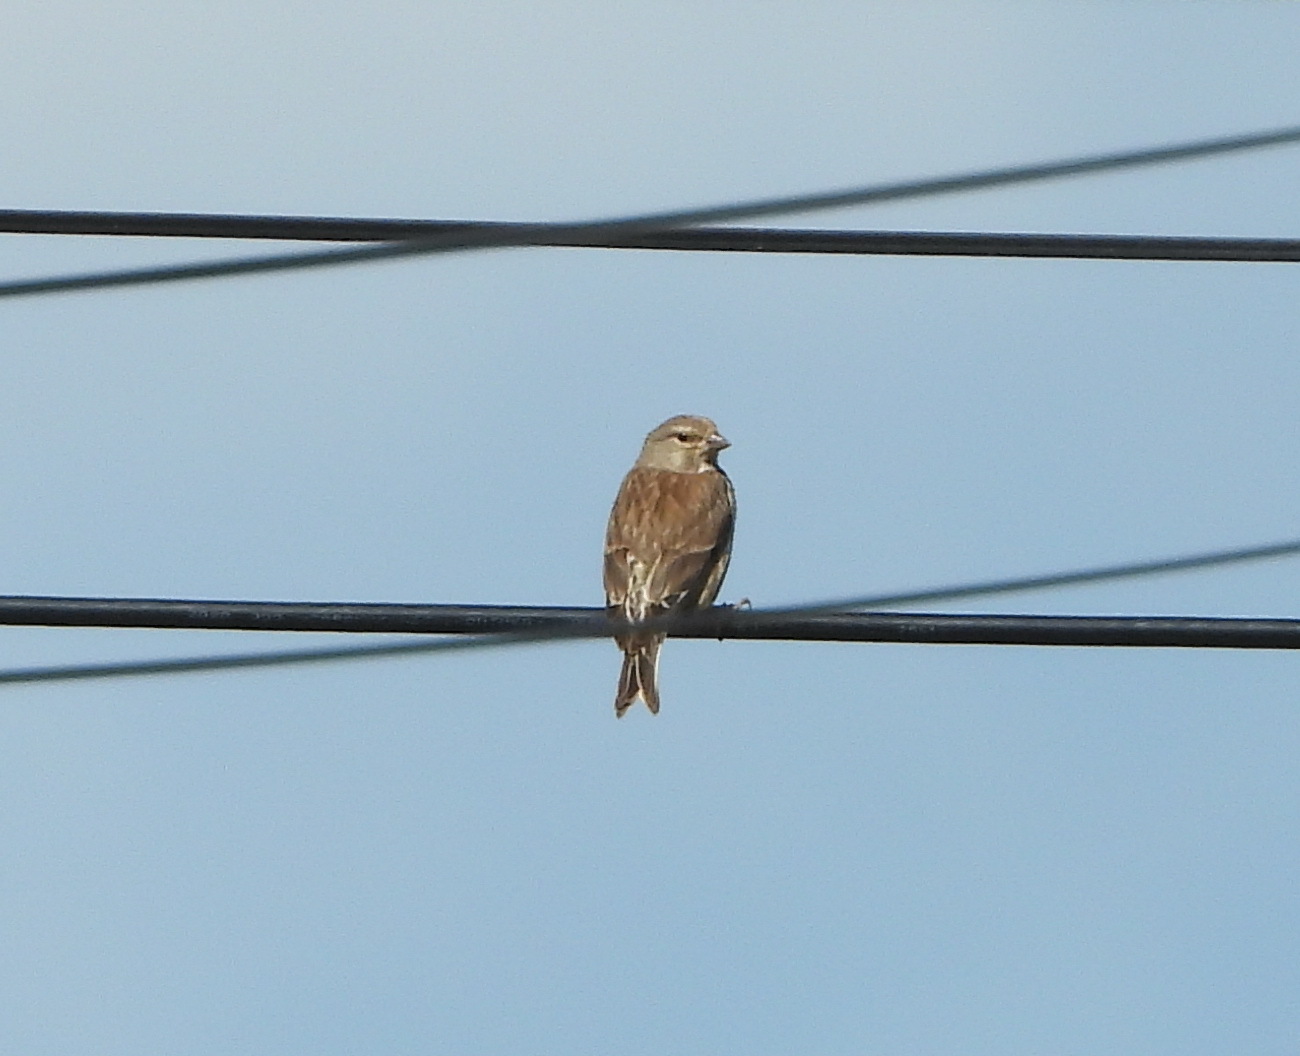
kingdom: Animalia
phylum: Chordata
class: Aves
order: Passeriformes
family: Fringillidae
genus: Linaria
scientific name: Linaria cannabina
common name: Common linnet
